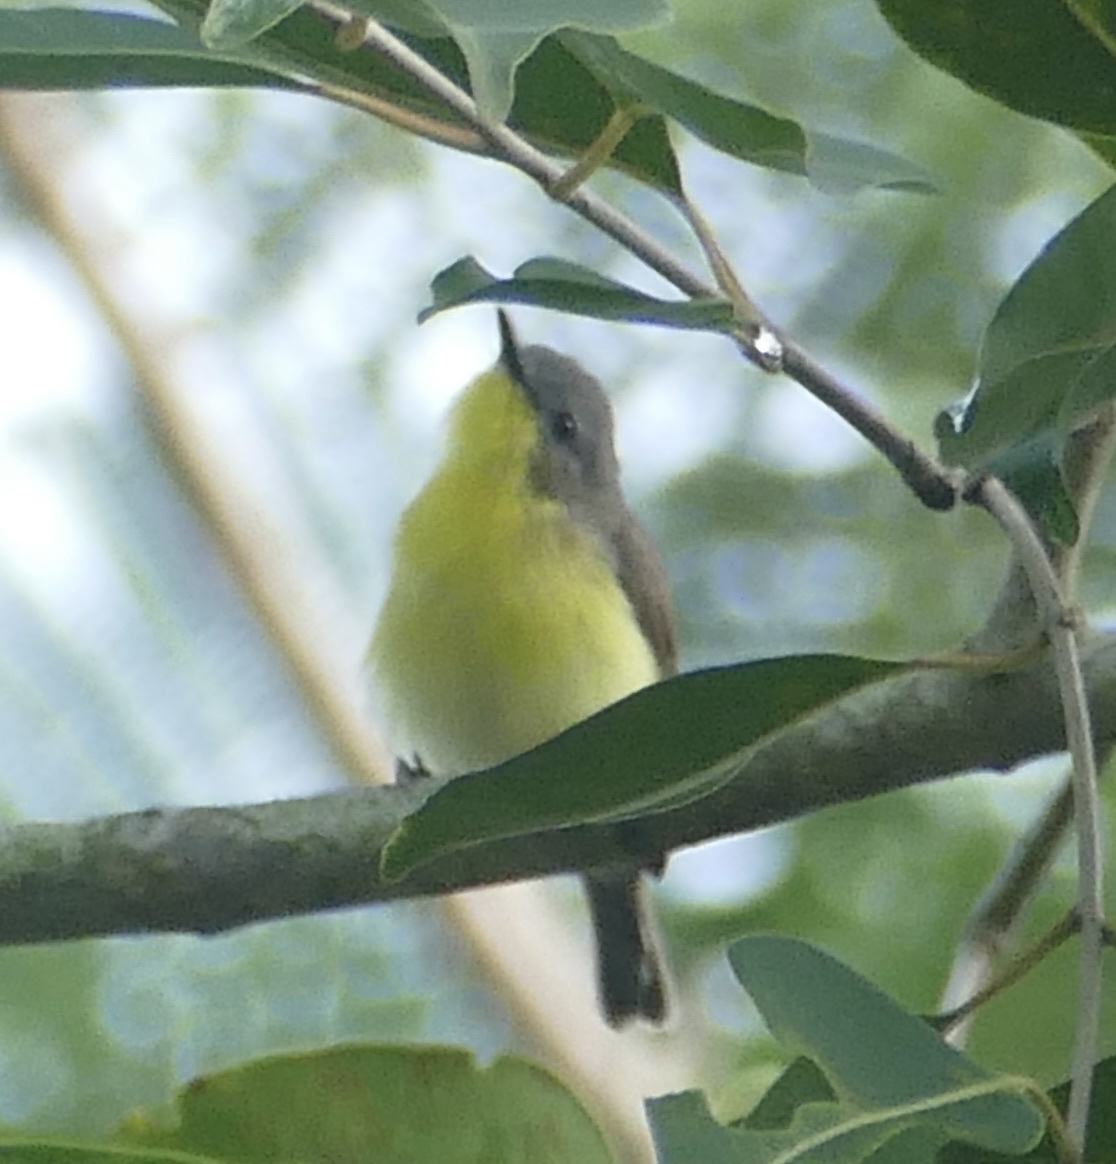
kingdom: Animalia
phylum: Chordata
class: Aves
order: Passeriformes
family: Acanthizidae
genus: Gerygone
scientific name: Gerygone sulphurea
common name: Golden-bellied gerygone
